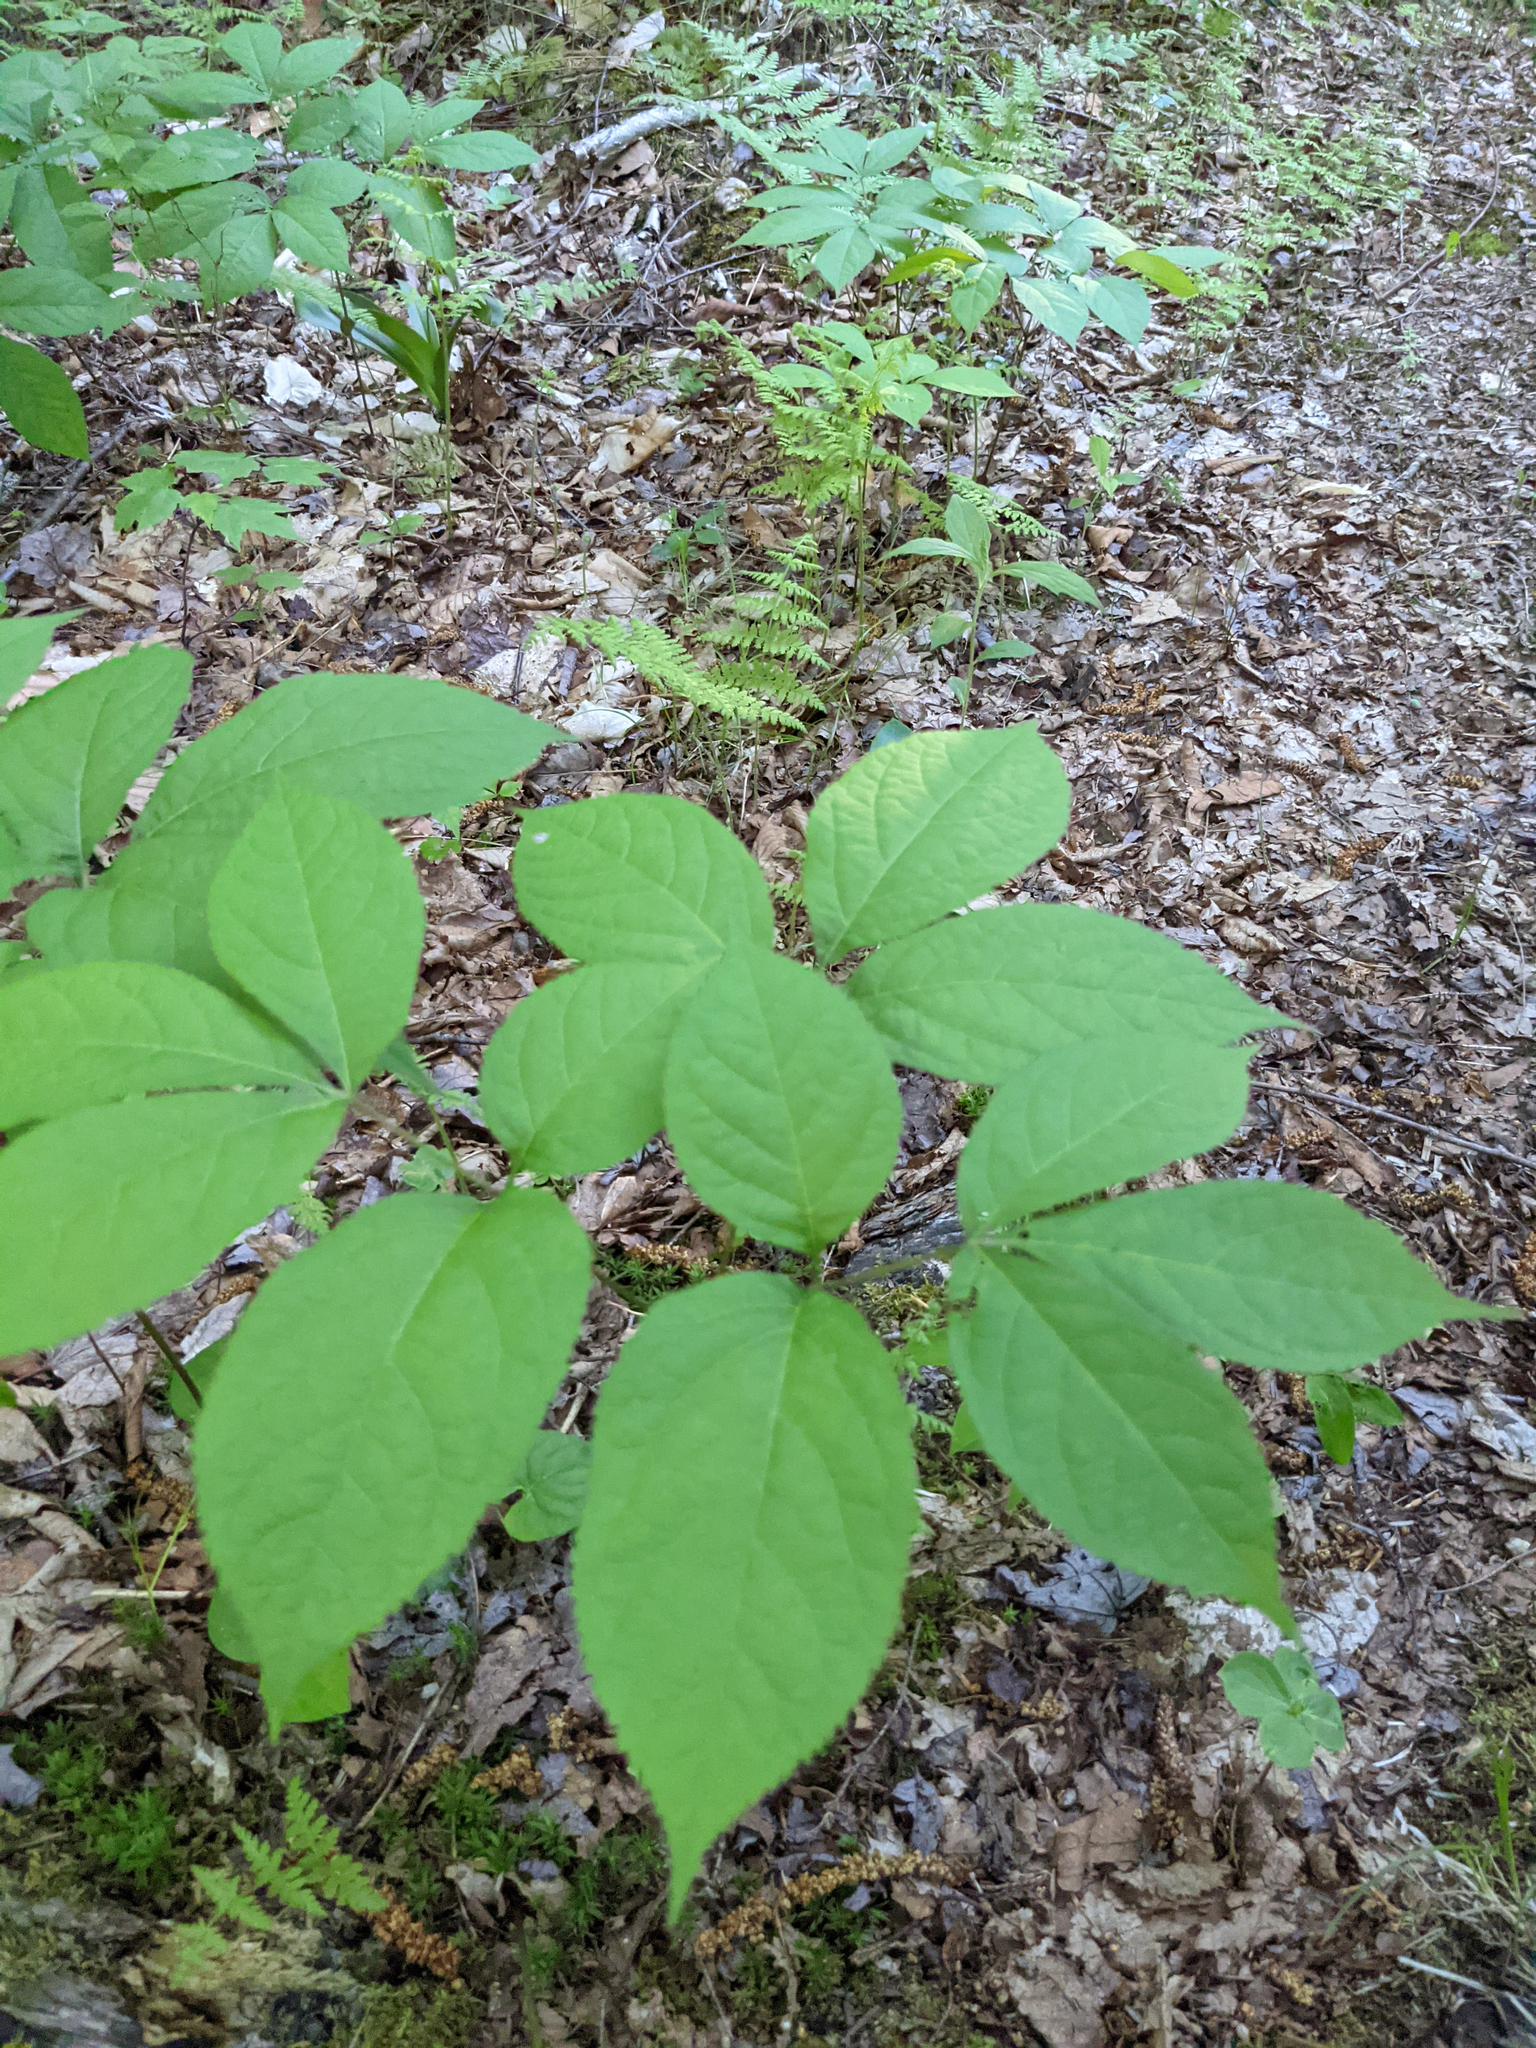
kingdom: Plantae
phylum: Tracheophyta
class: Magnoliopsida
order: Apiales
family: Araliaceae
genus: Aralia
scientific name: Aralia nudicaulis
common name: Wild sarsaparilla
